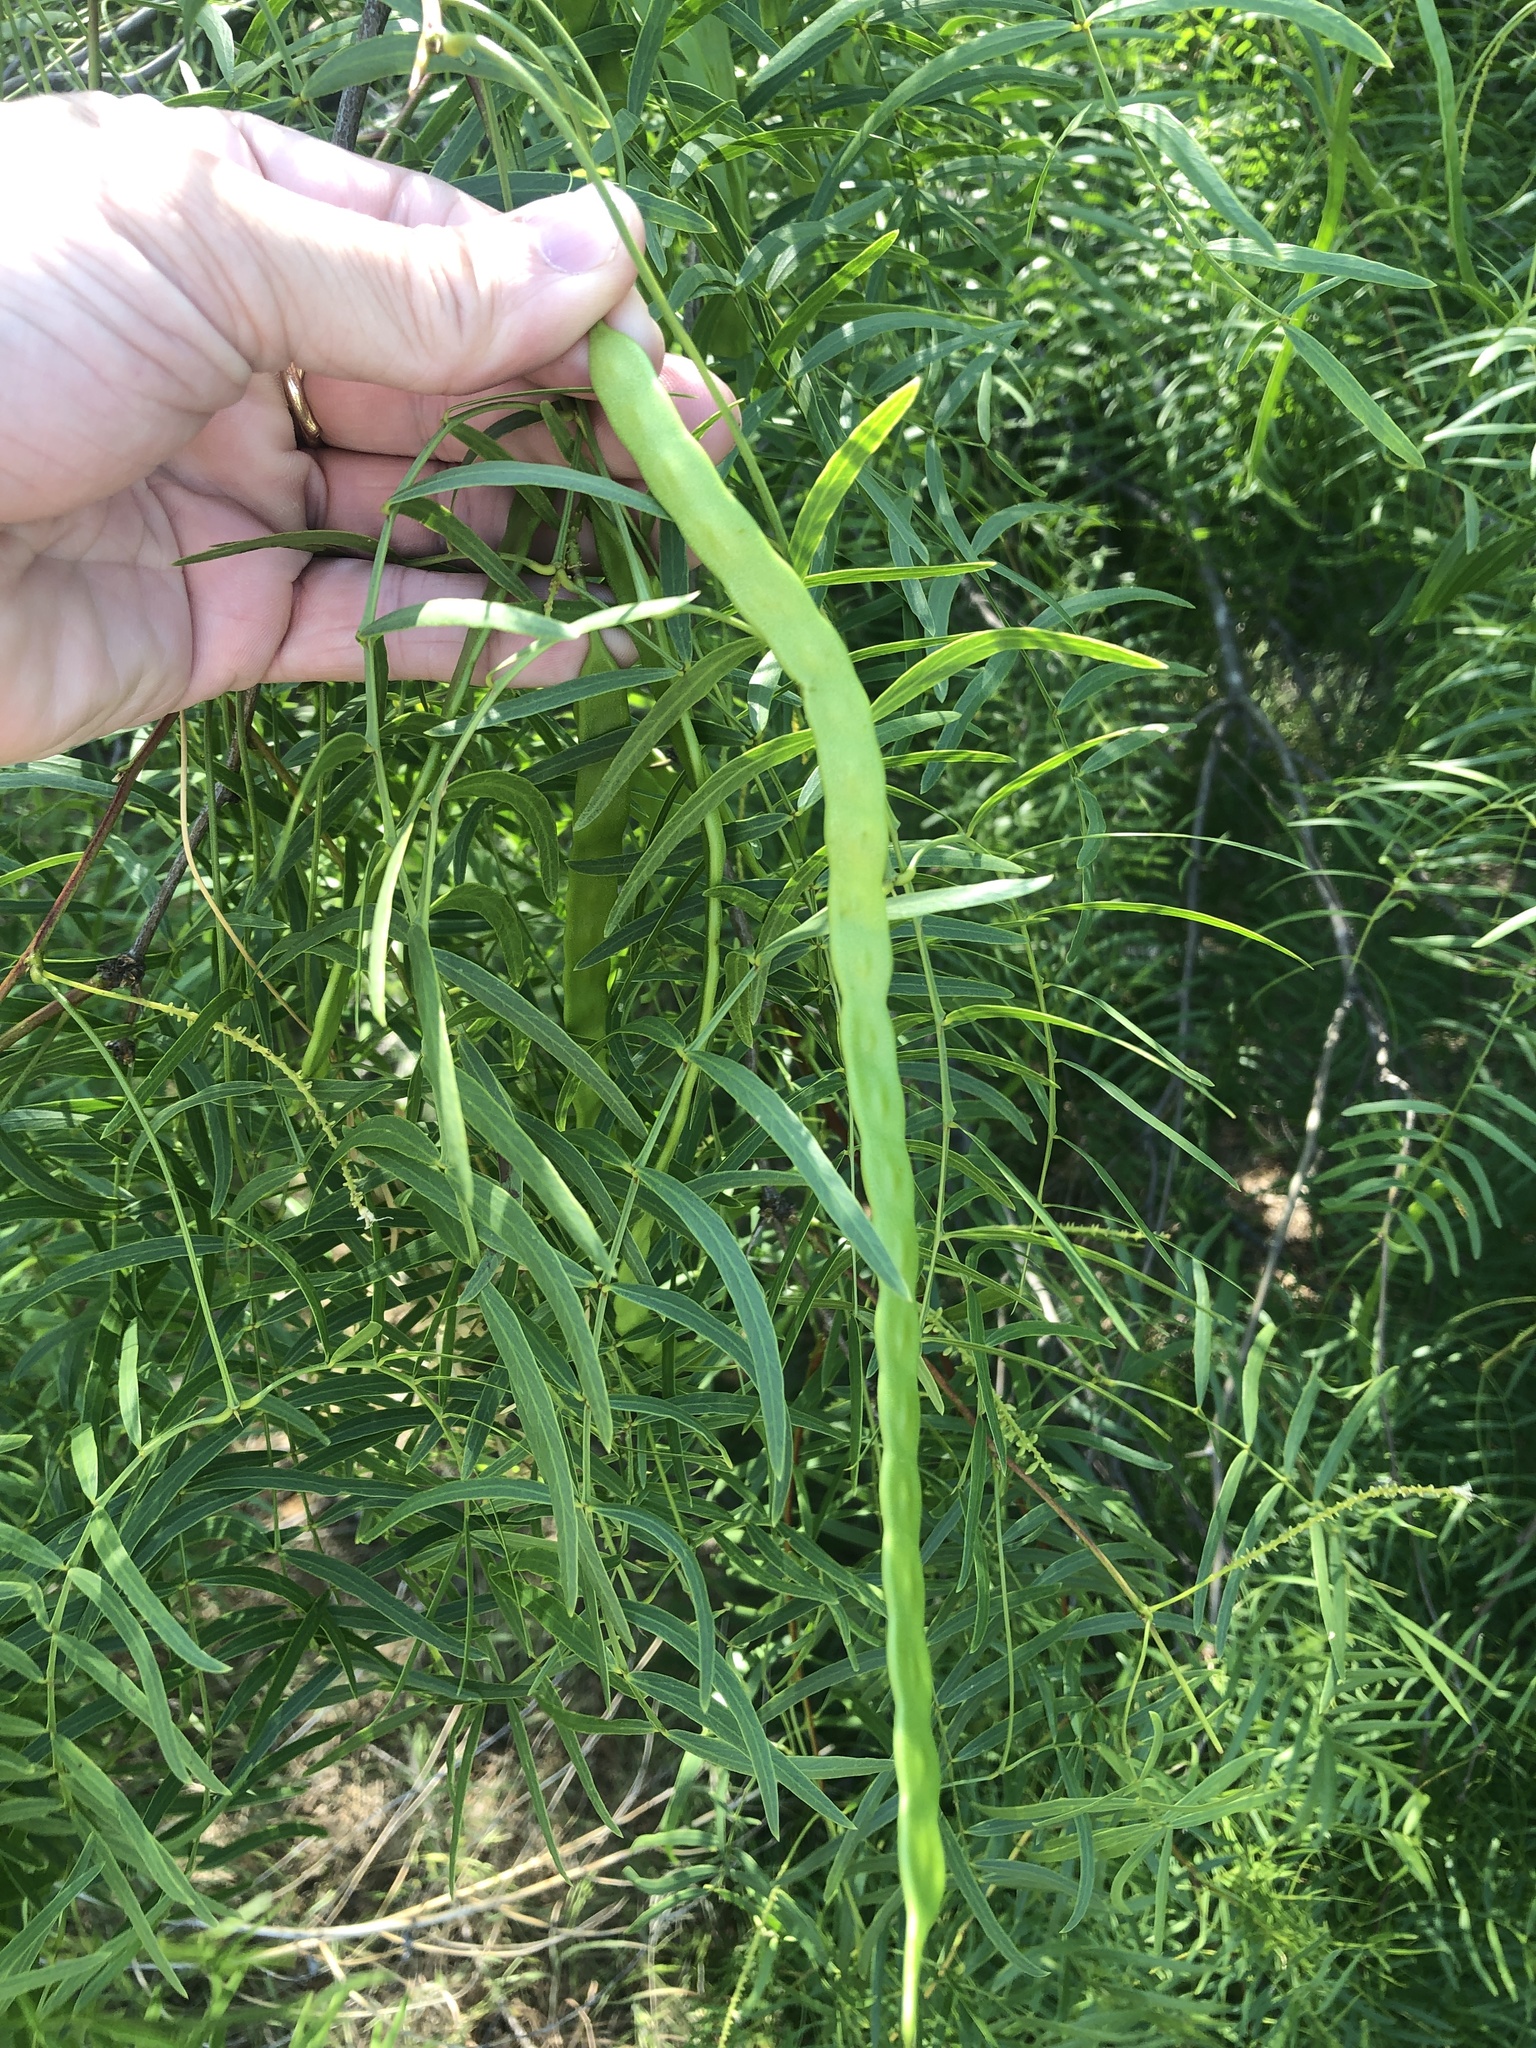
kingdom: Plantae
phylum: Tracheophyta
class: Magnoliopsida
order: Fabales
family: Fabaceae
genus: Prosopis
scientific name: Prosopis glandulosa
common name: Honey mesquite
